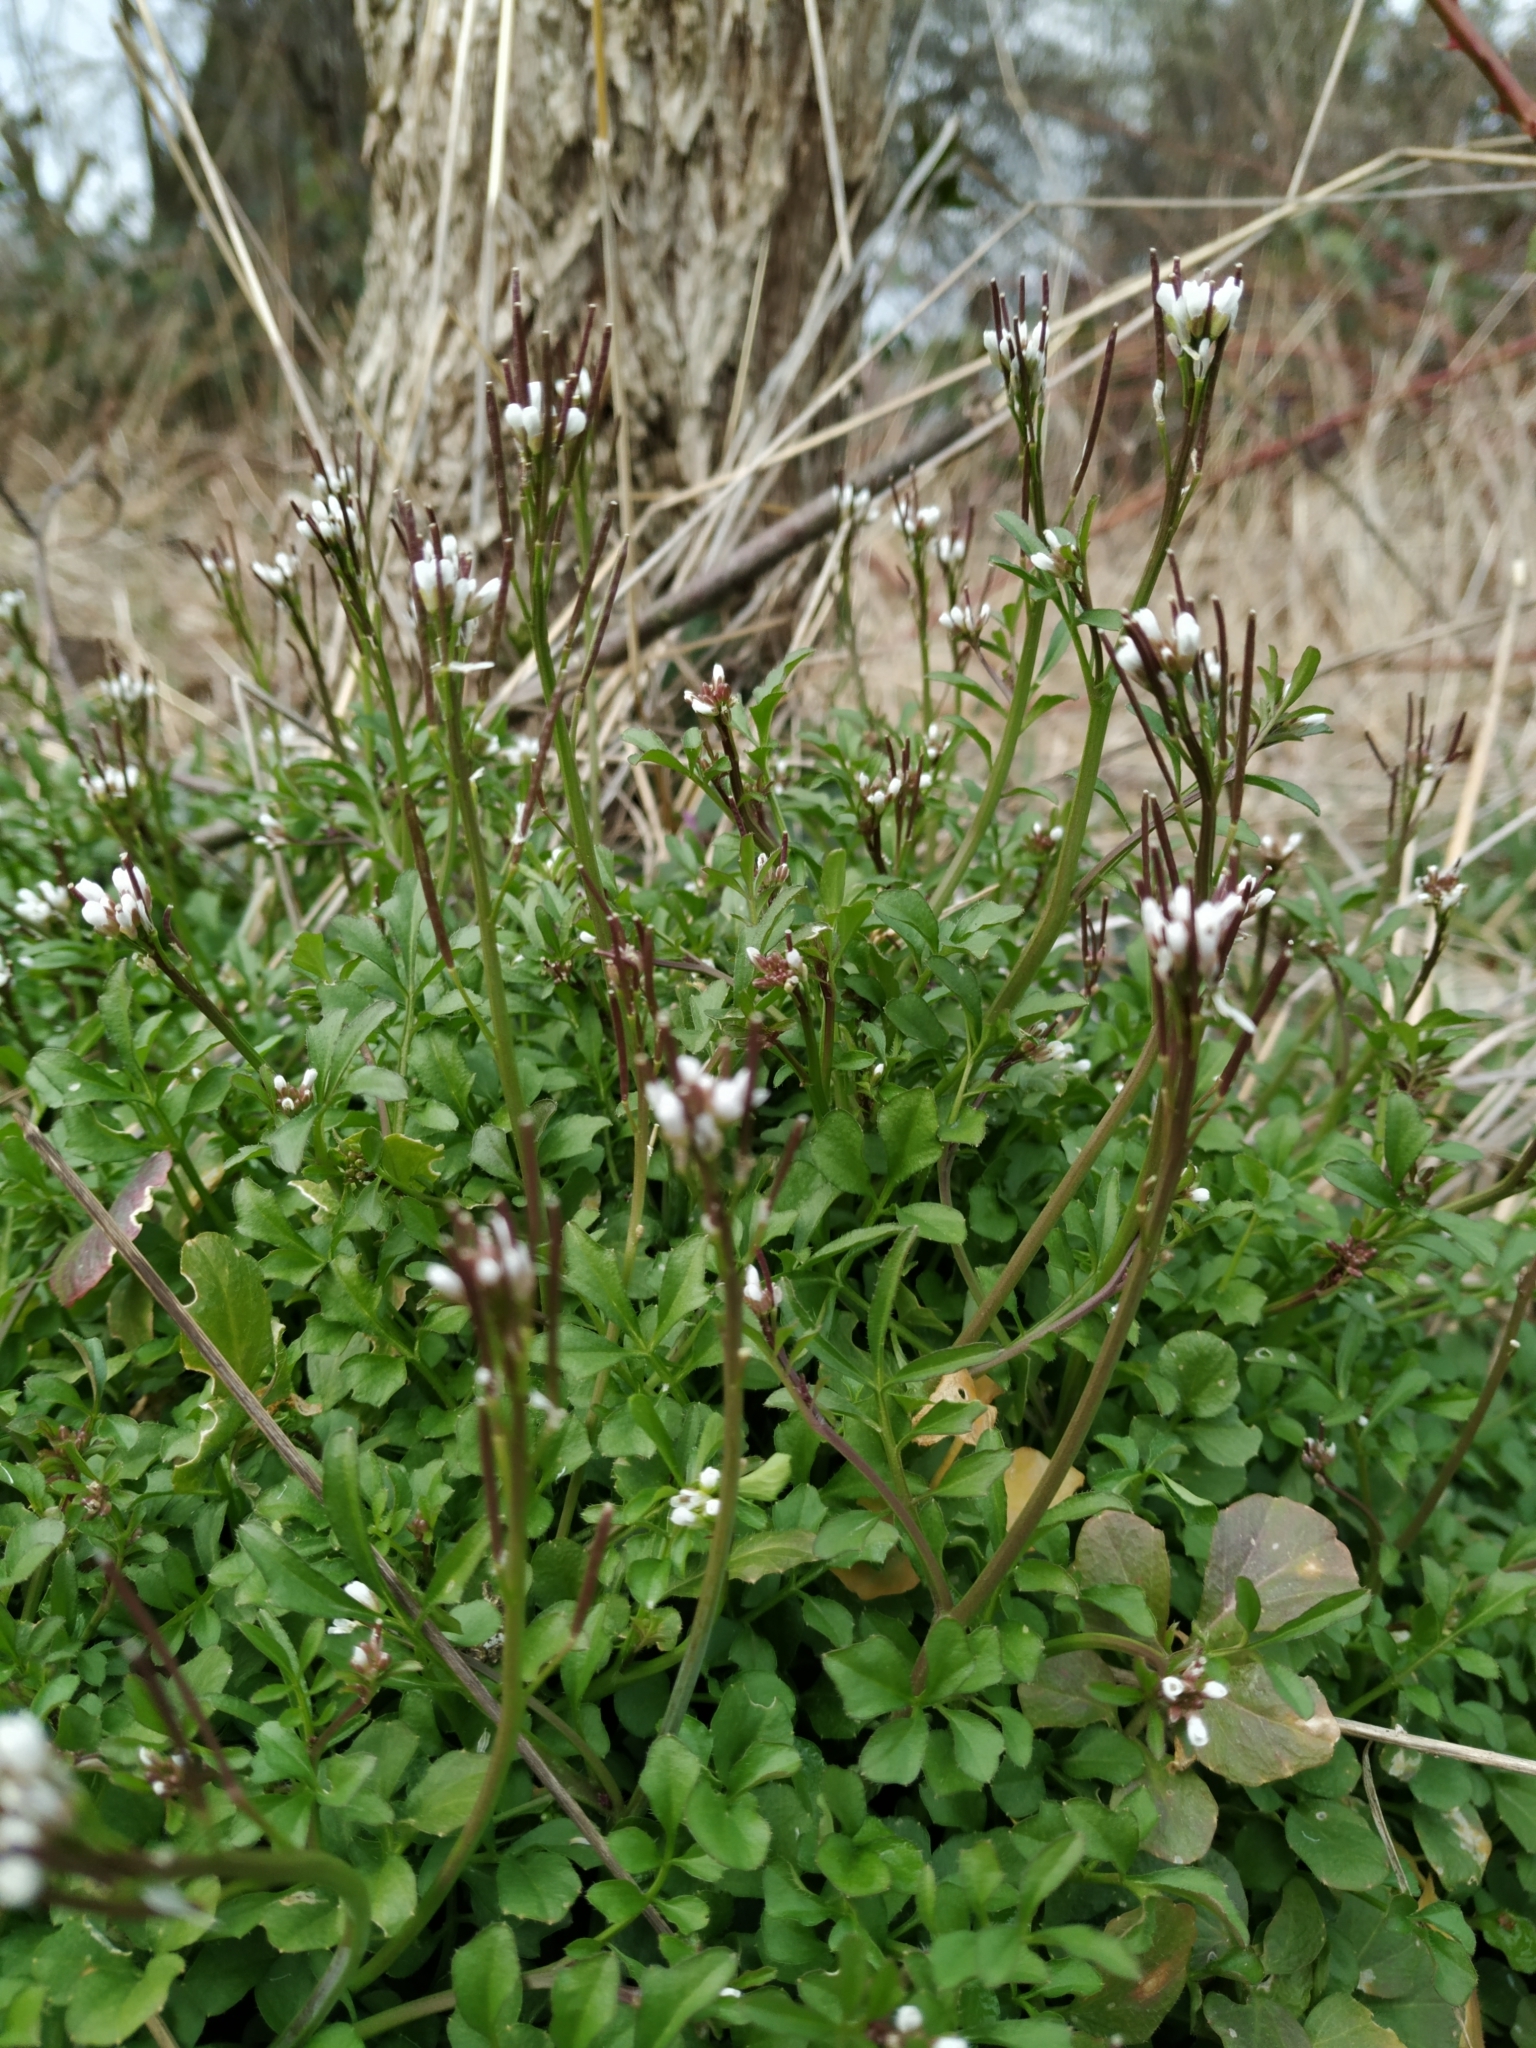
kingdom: Plantae
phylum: Tracheophyta
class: Magnoliopsida
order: Brassicales
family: Brassicaceae
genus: Cardamine
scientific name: Cardamine hirsuta
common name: Hairy bittercress
